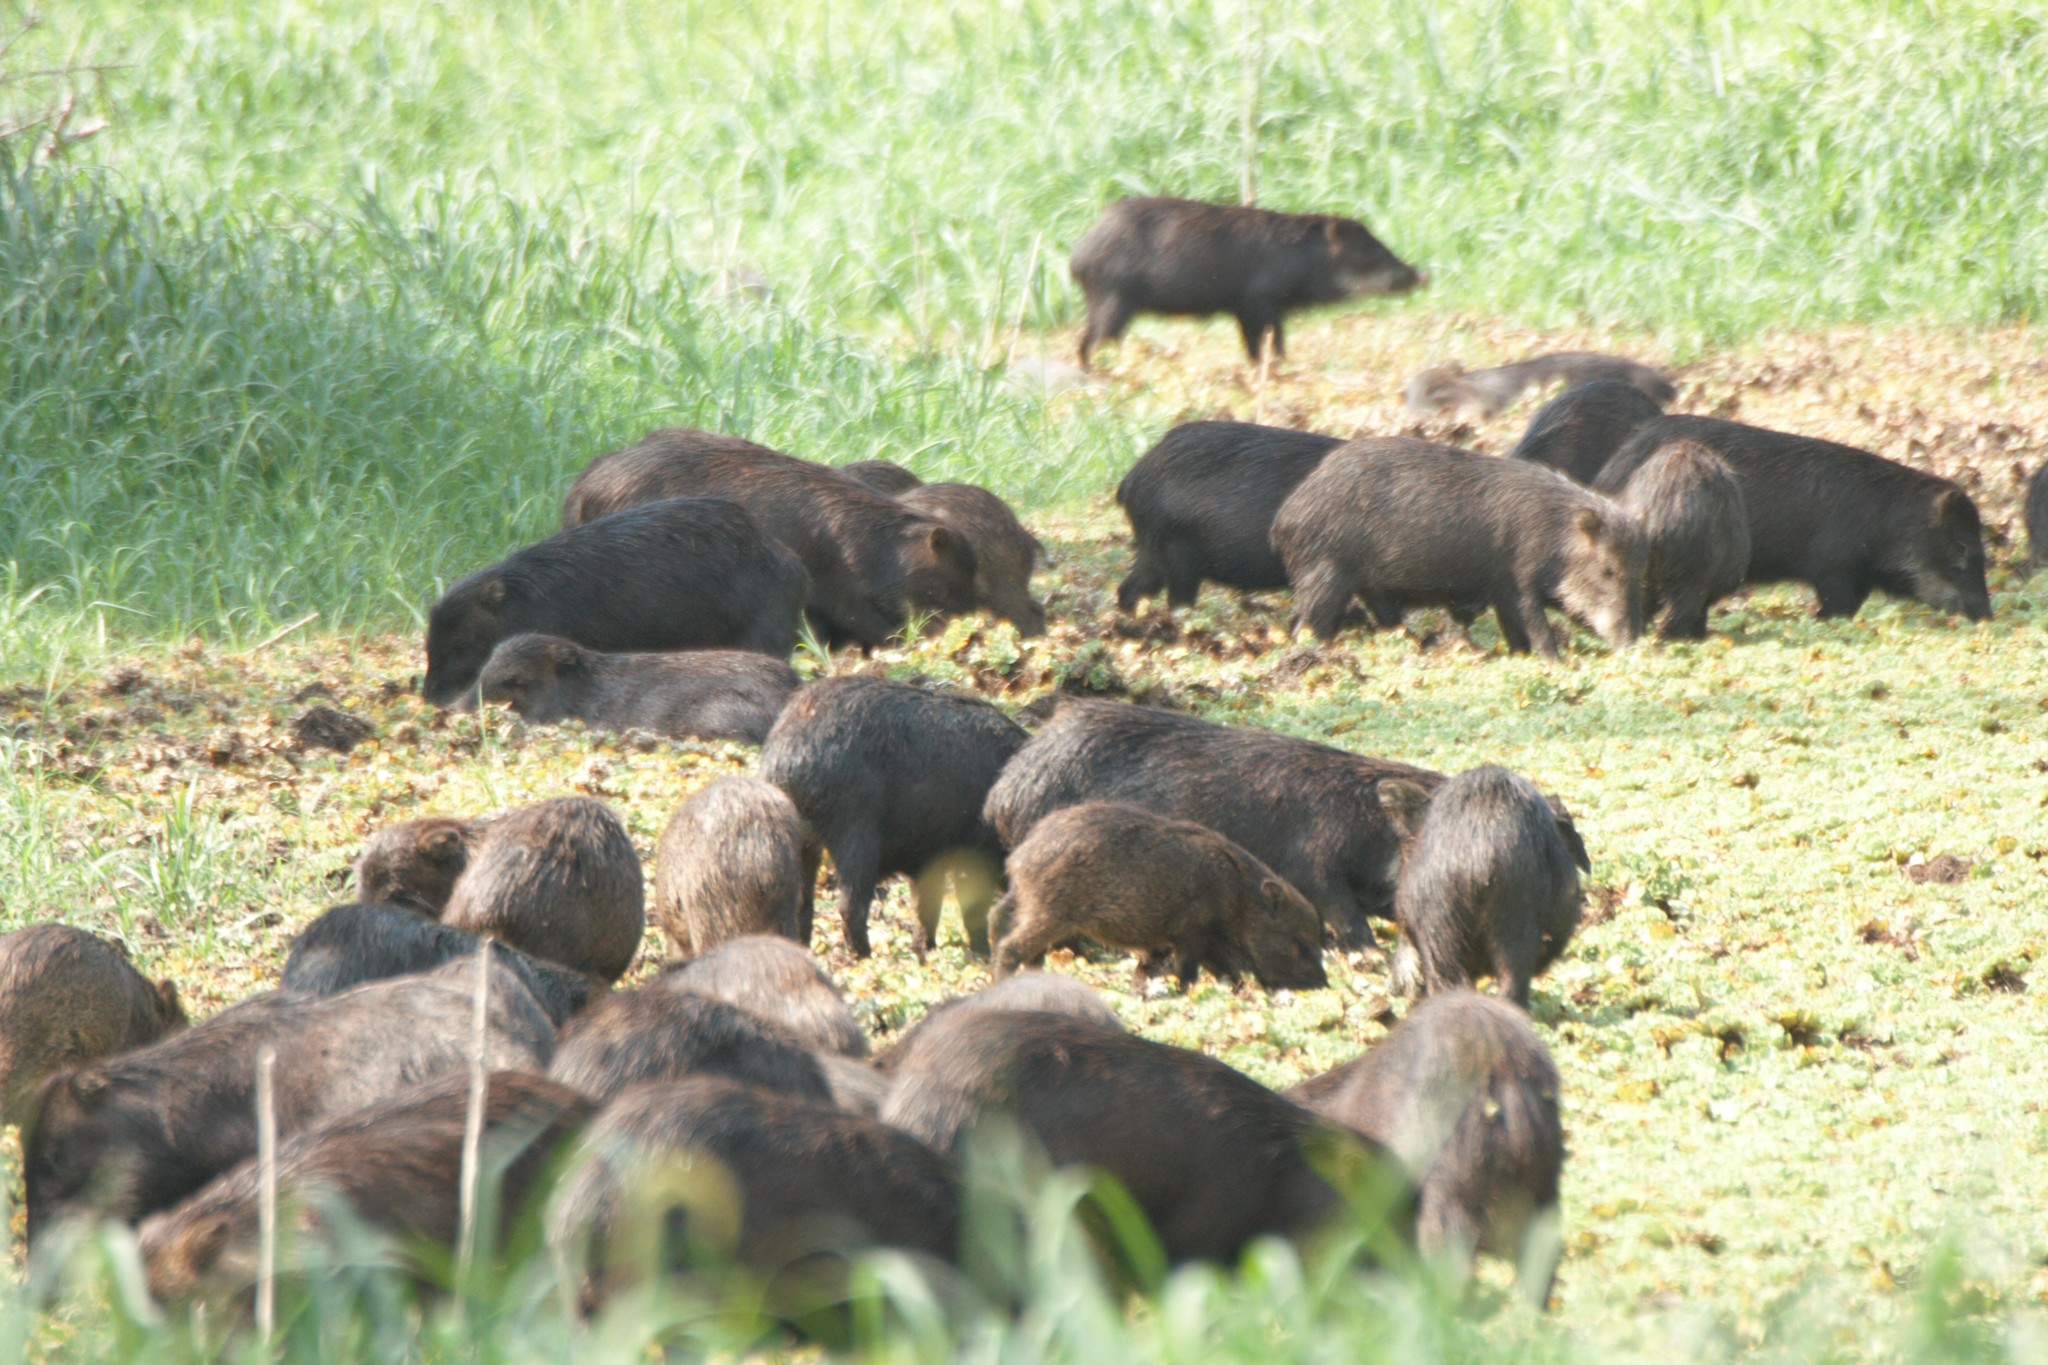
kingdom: Animalia
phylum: Chordata
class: Mammalia
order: Artiodactyla
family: Tayassuidae
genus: Tayassu
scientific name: Tayassu pecari
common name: White-lipped peccary
